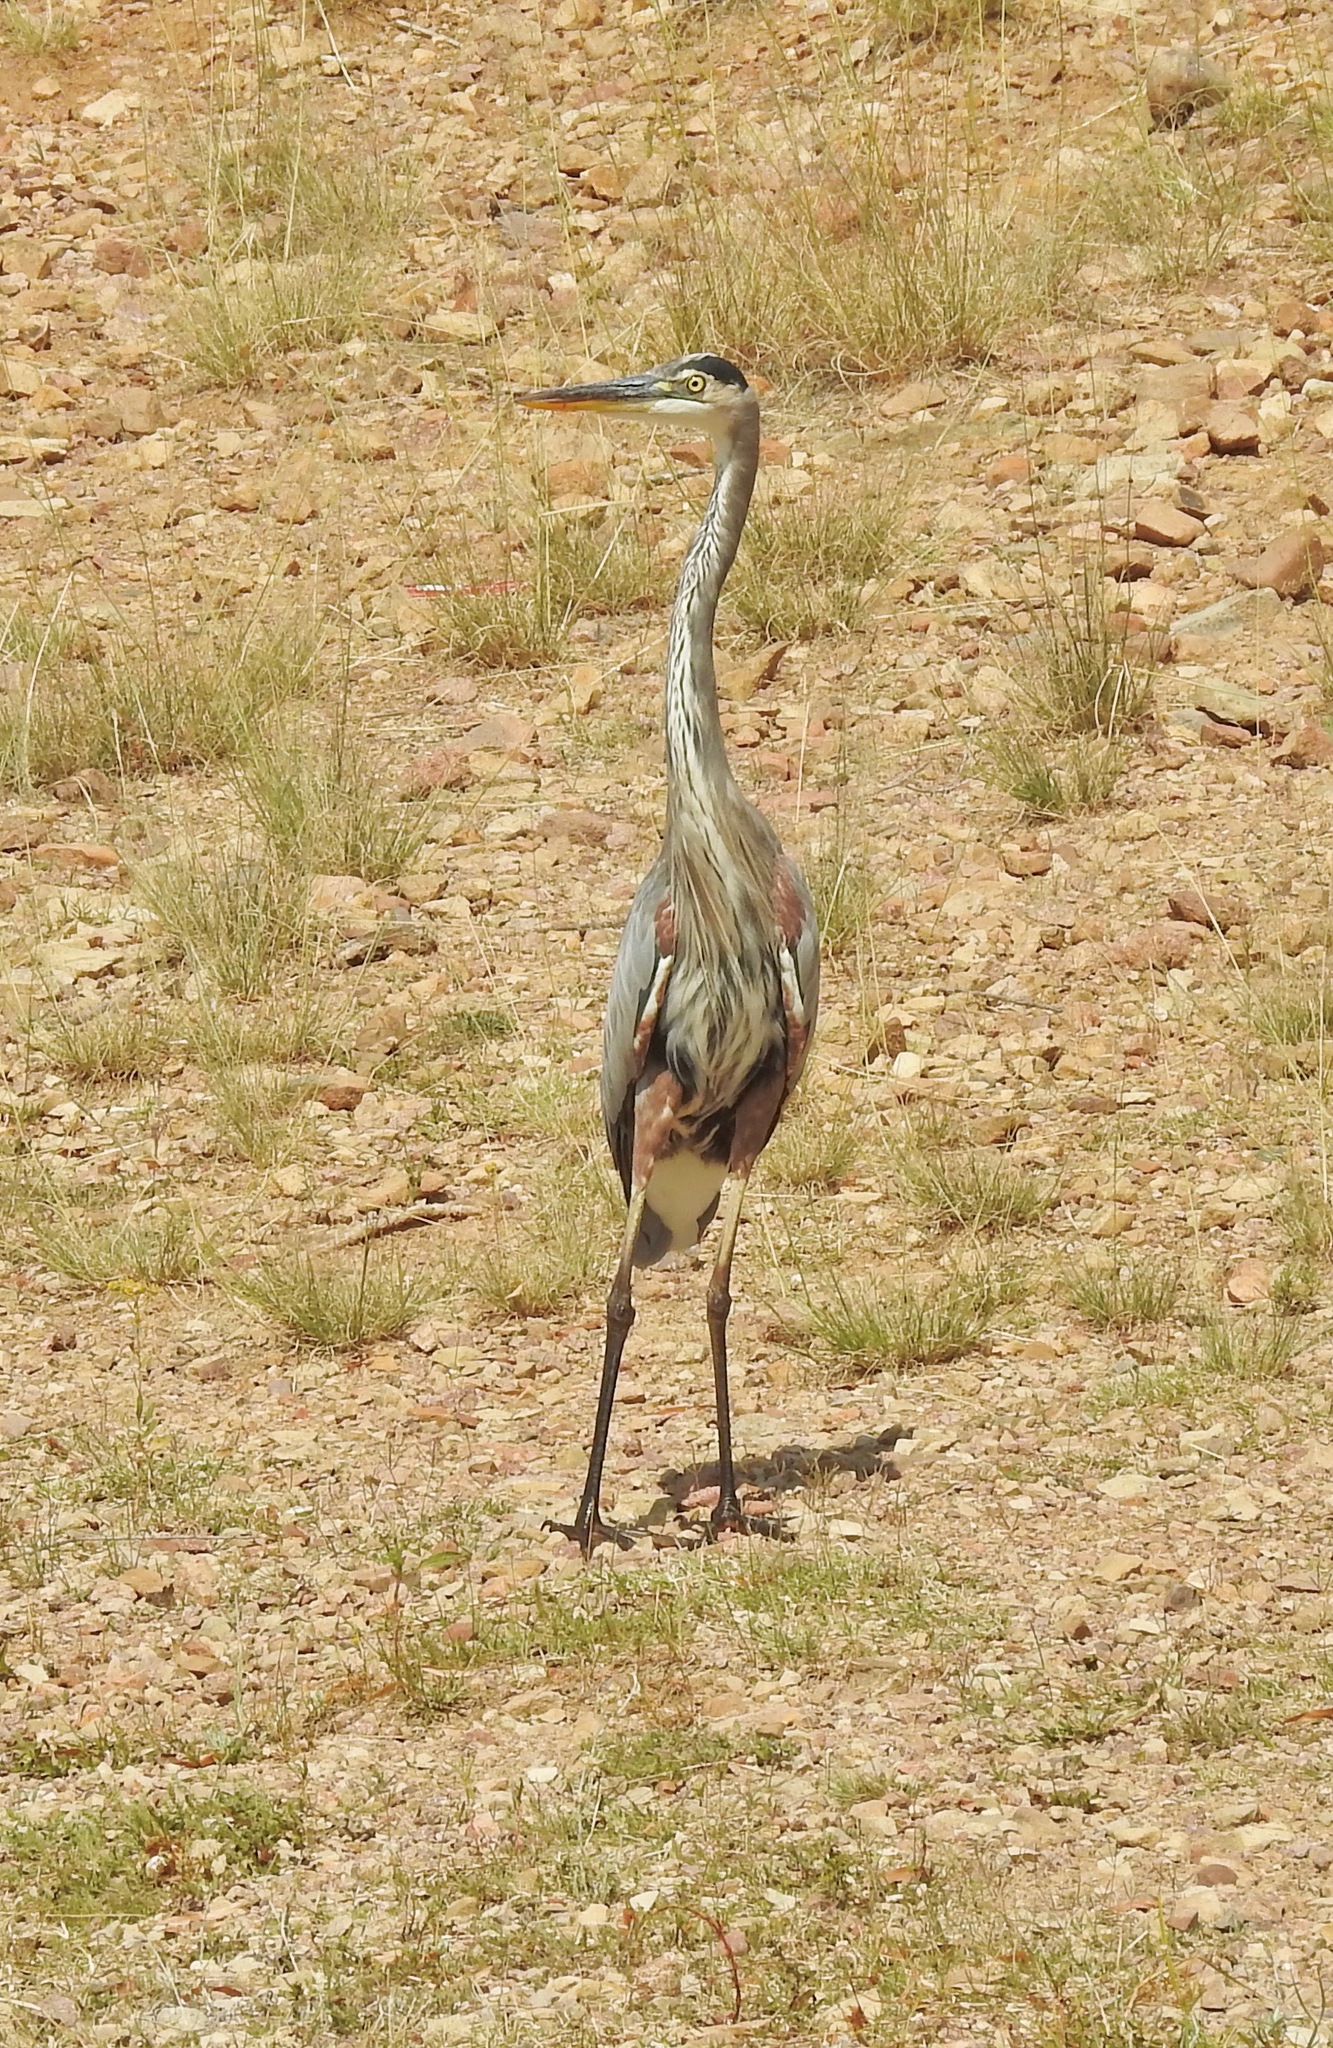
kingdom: Animalia
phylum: Chordata
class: Aves
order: Pelecaniformes
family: Ardeidae
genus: Ardea
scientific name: Ardea herodias
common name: Great blue heron
